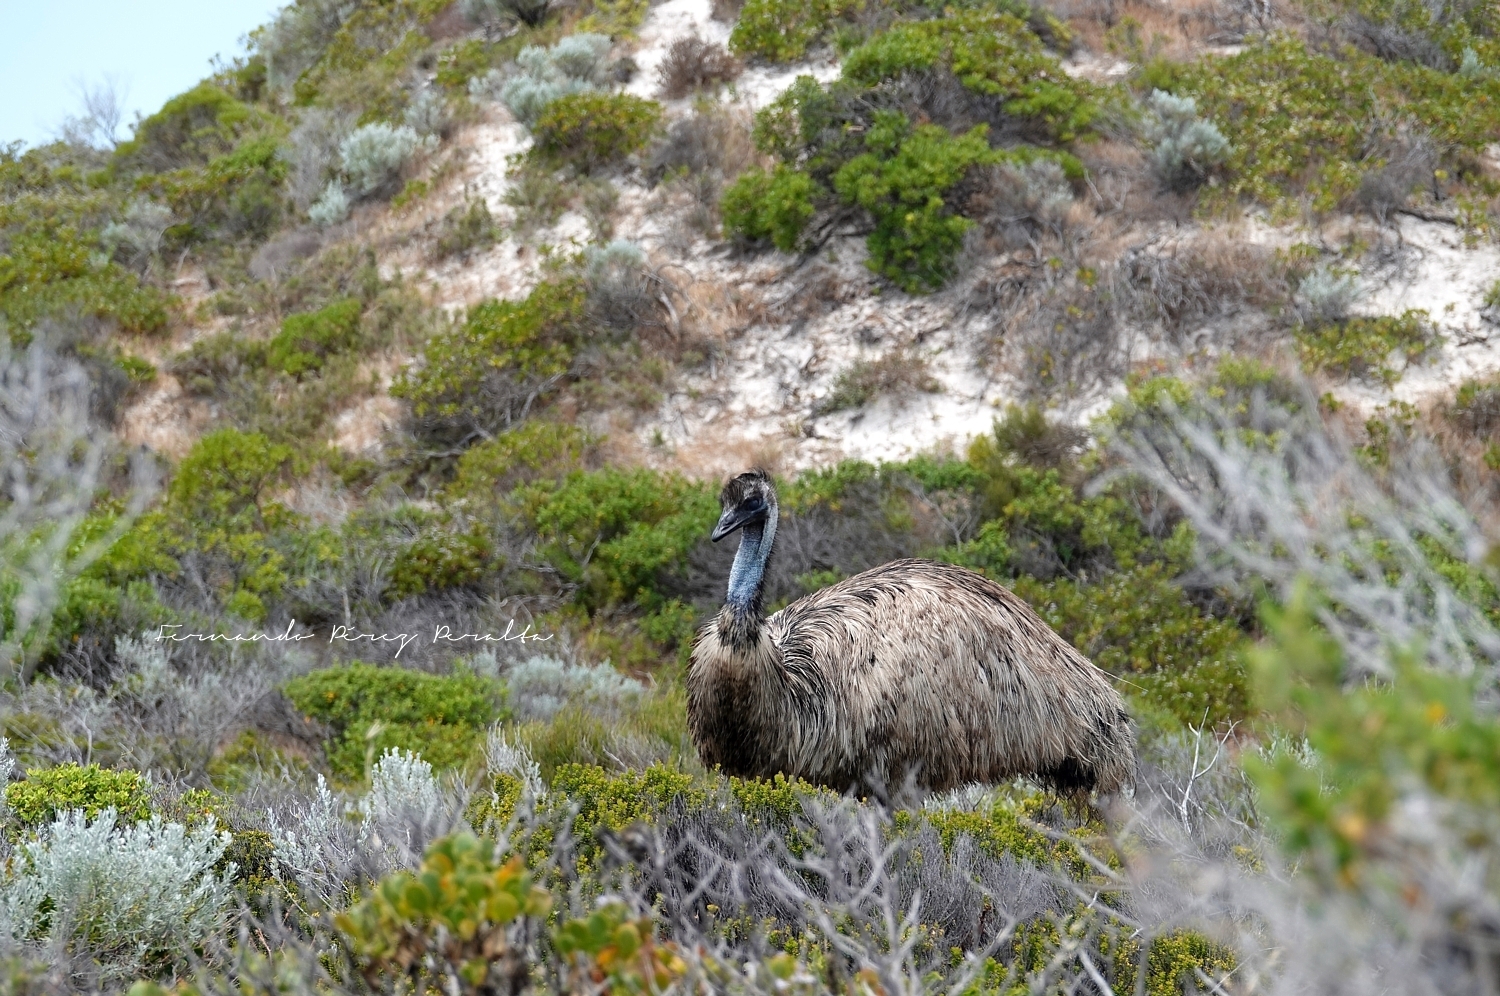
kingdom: Animalia
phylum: Chordata
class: Aves
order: Casuariiformes
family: Dromaiidae
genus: Dromaius
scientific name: Dromaius novaehollandiae
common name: Emu
